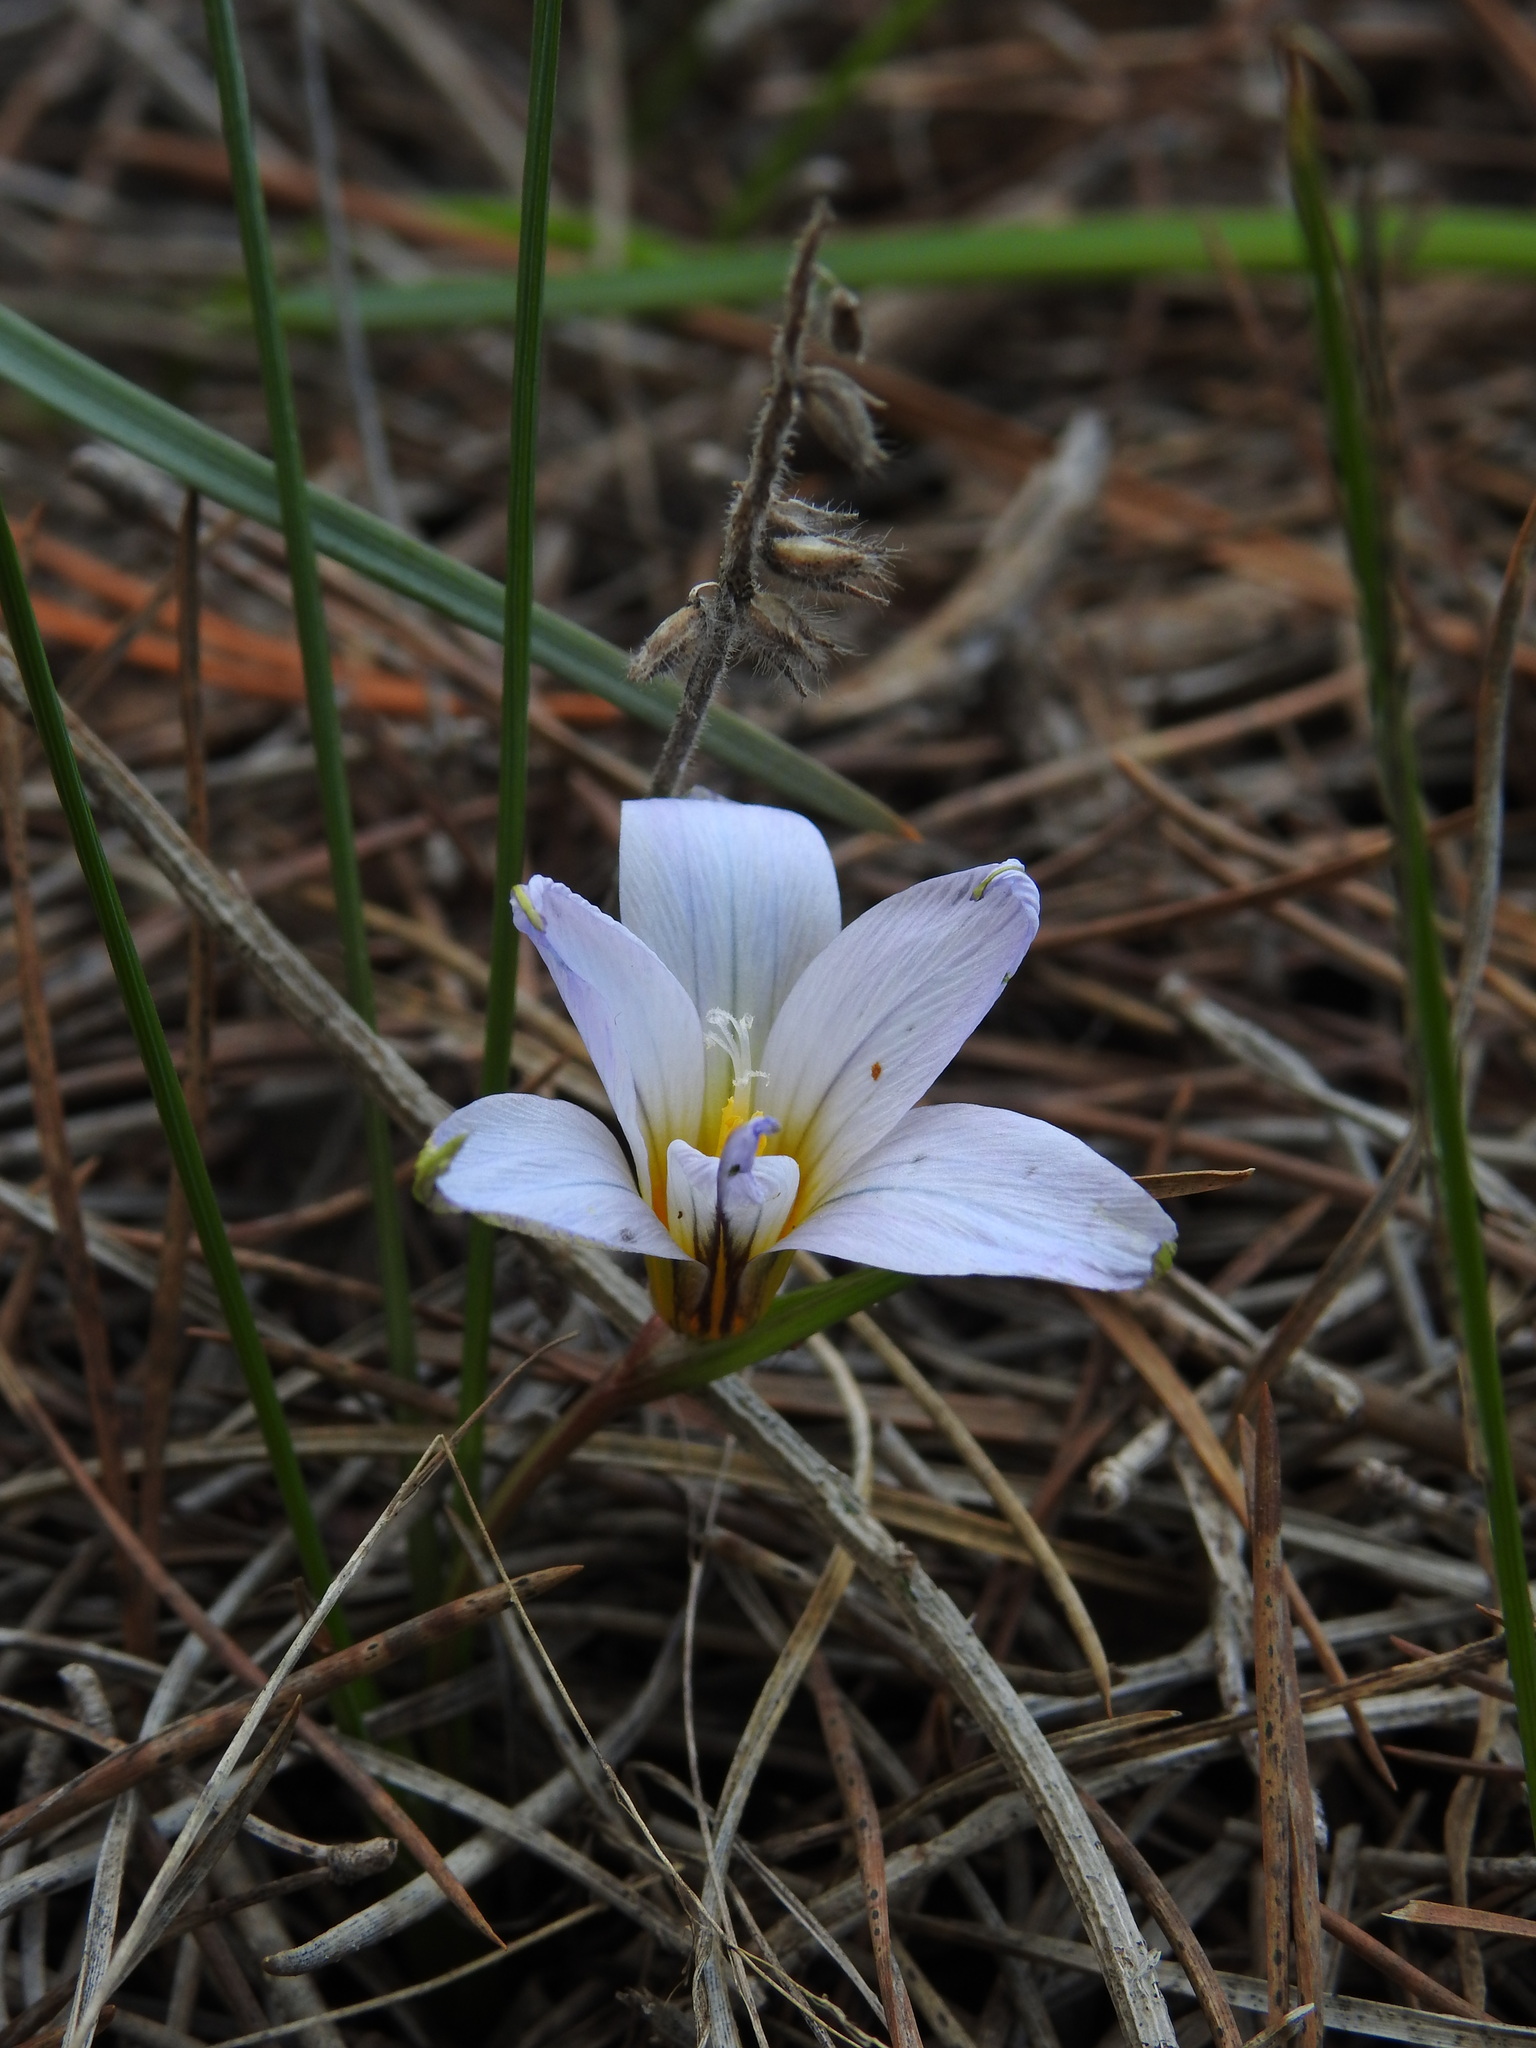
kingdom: Plantae
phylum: Tracheophyta
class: Liliopsida
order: Asparagales
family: Iridaceae
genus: Romulea
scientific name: Romulea bulbocodium
